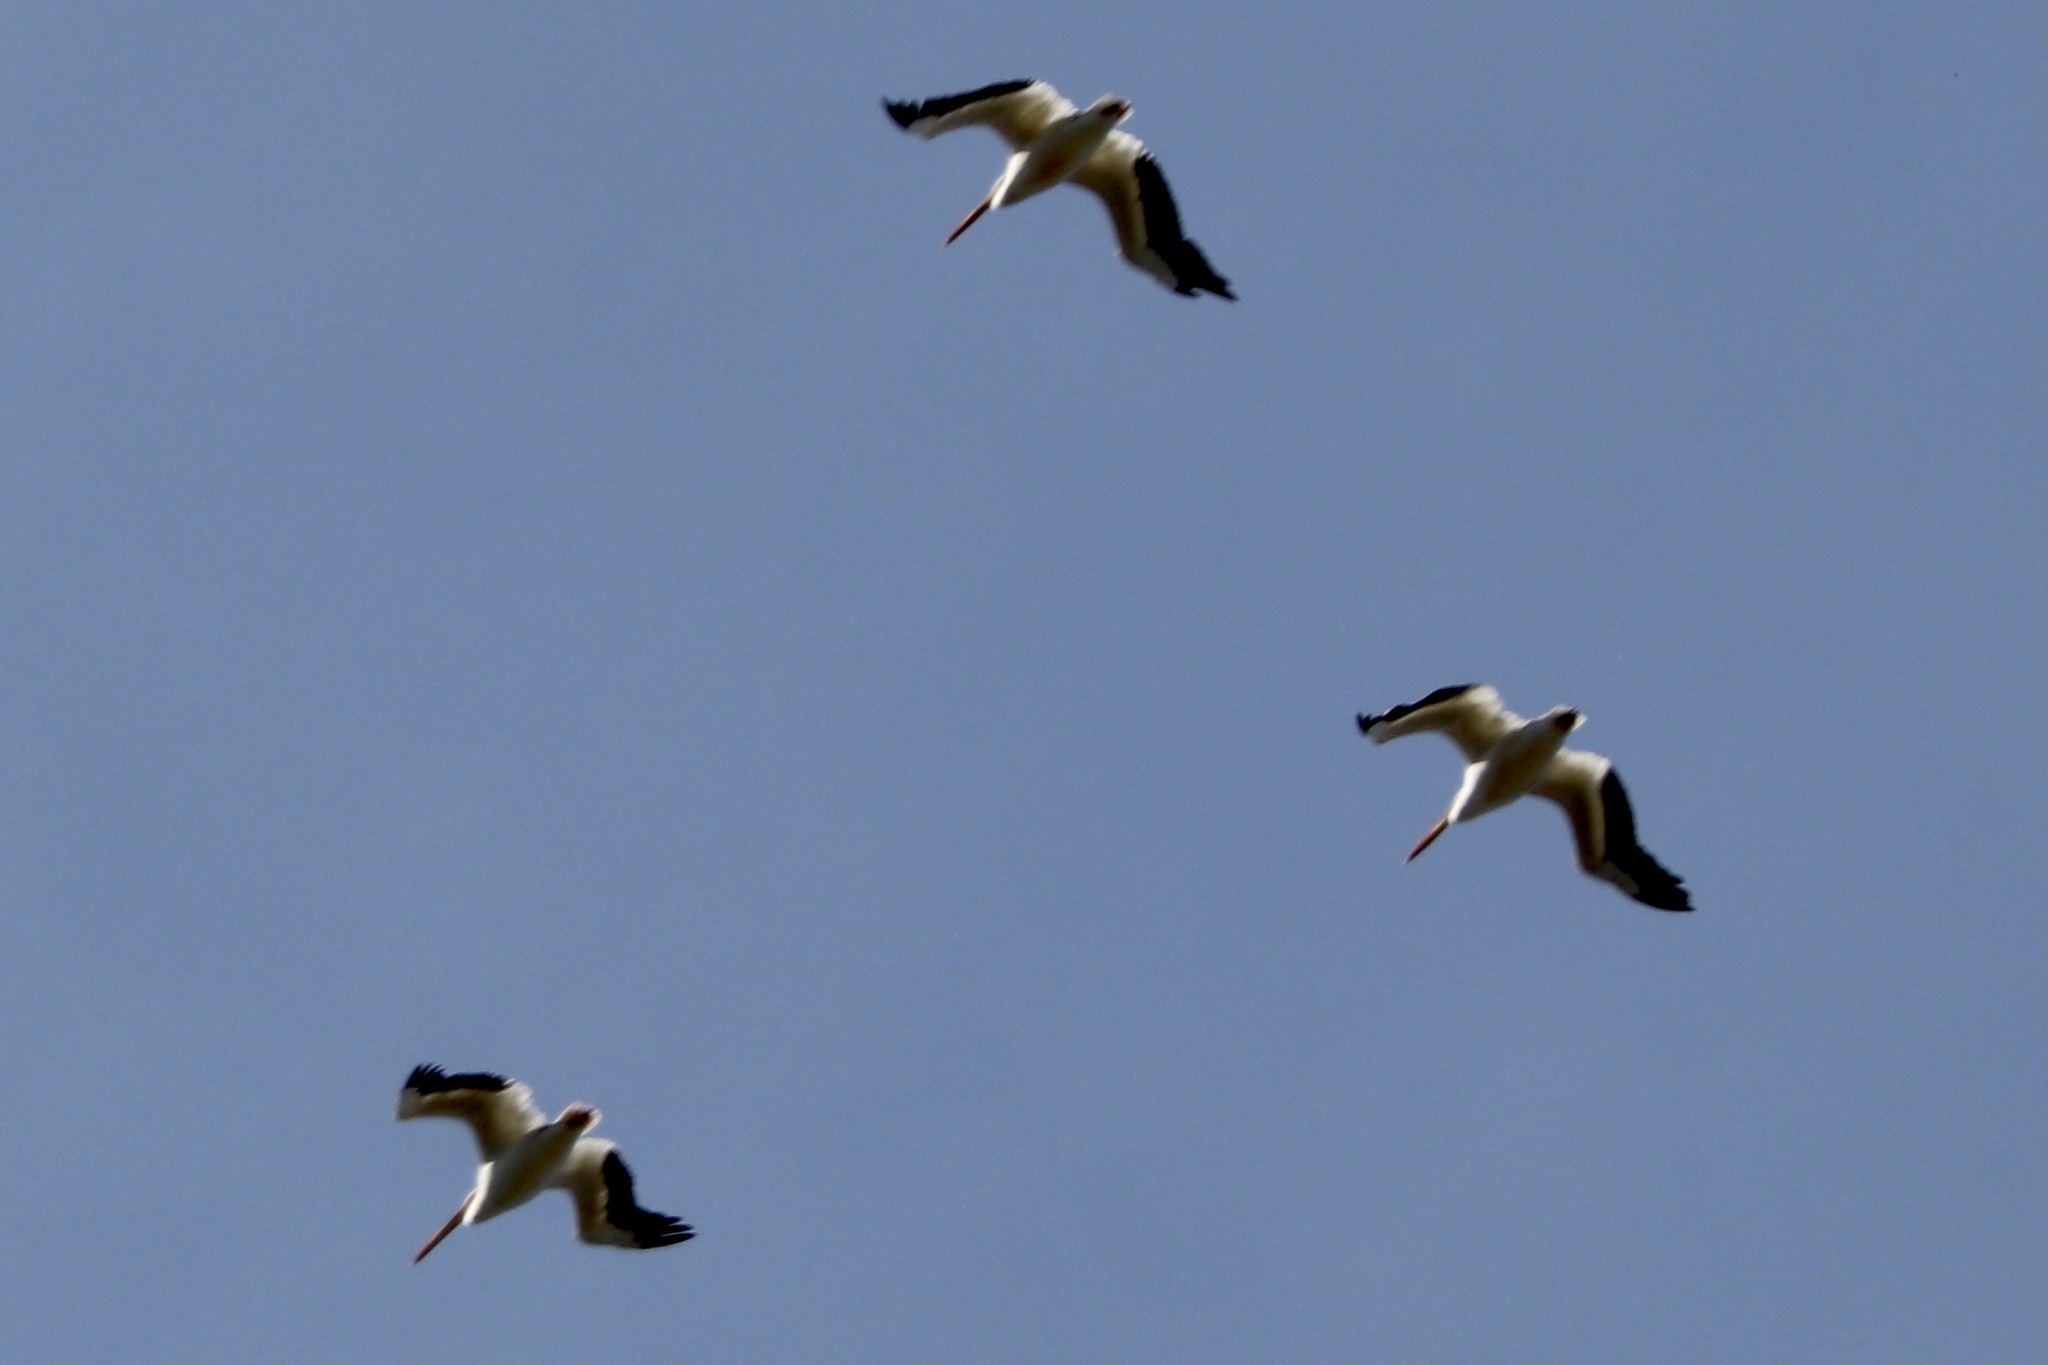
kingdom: Animalia
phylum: Chordata
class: Aves
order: Pelecaniformes
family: Pelecanidae
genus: Pelecanus
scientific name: Pelecanus erythrorhynchos
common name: American white pelican
